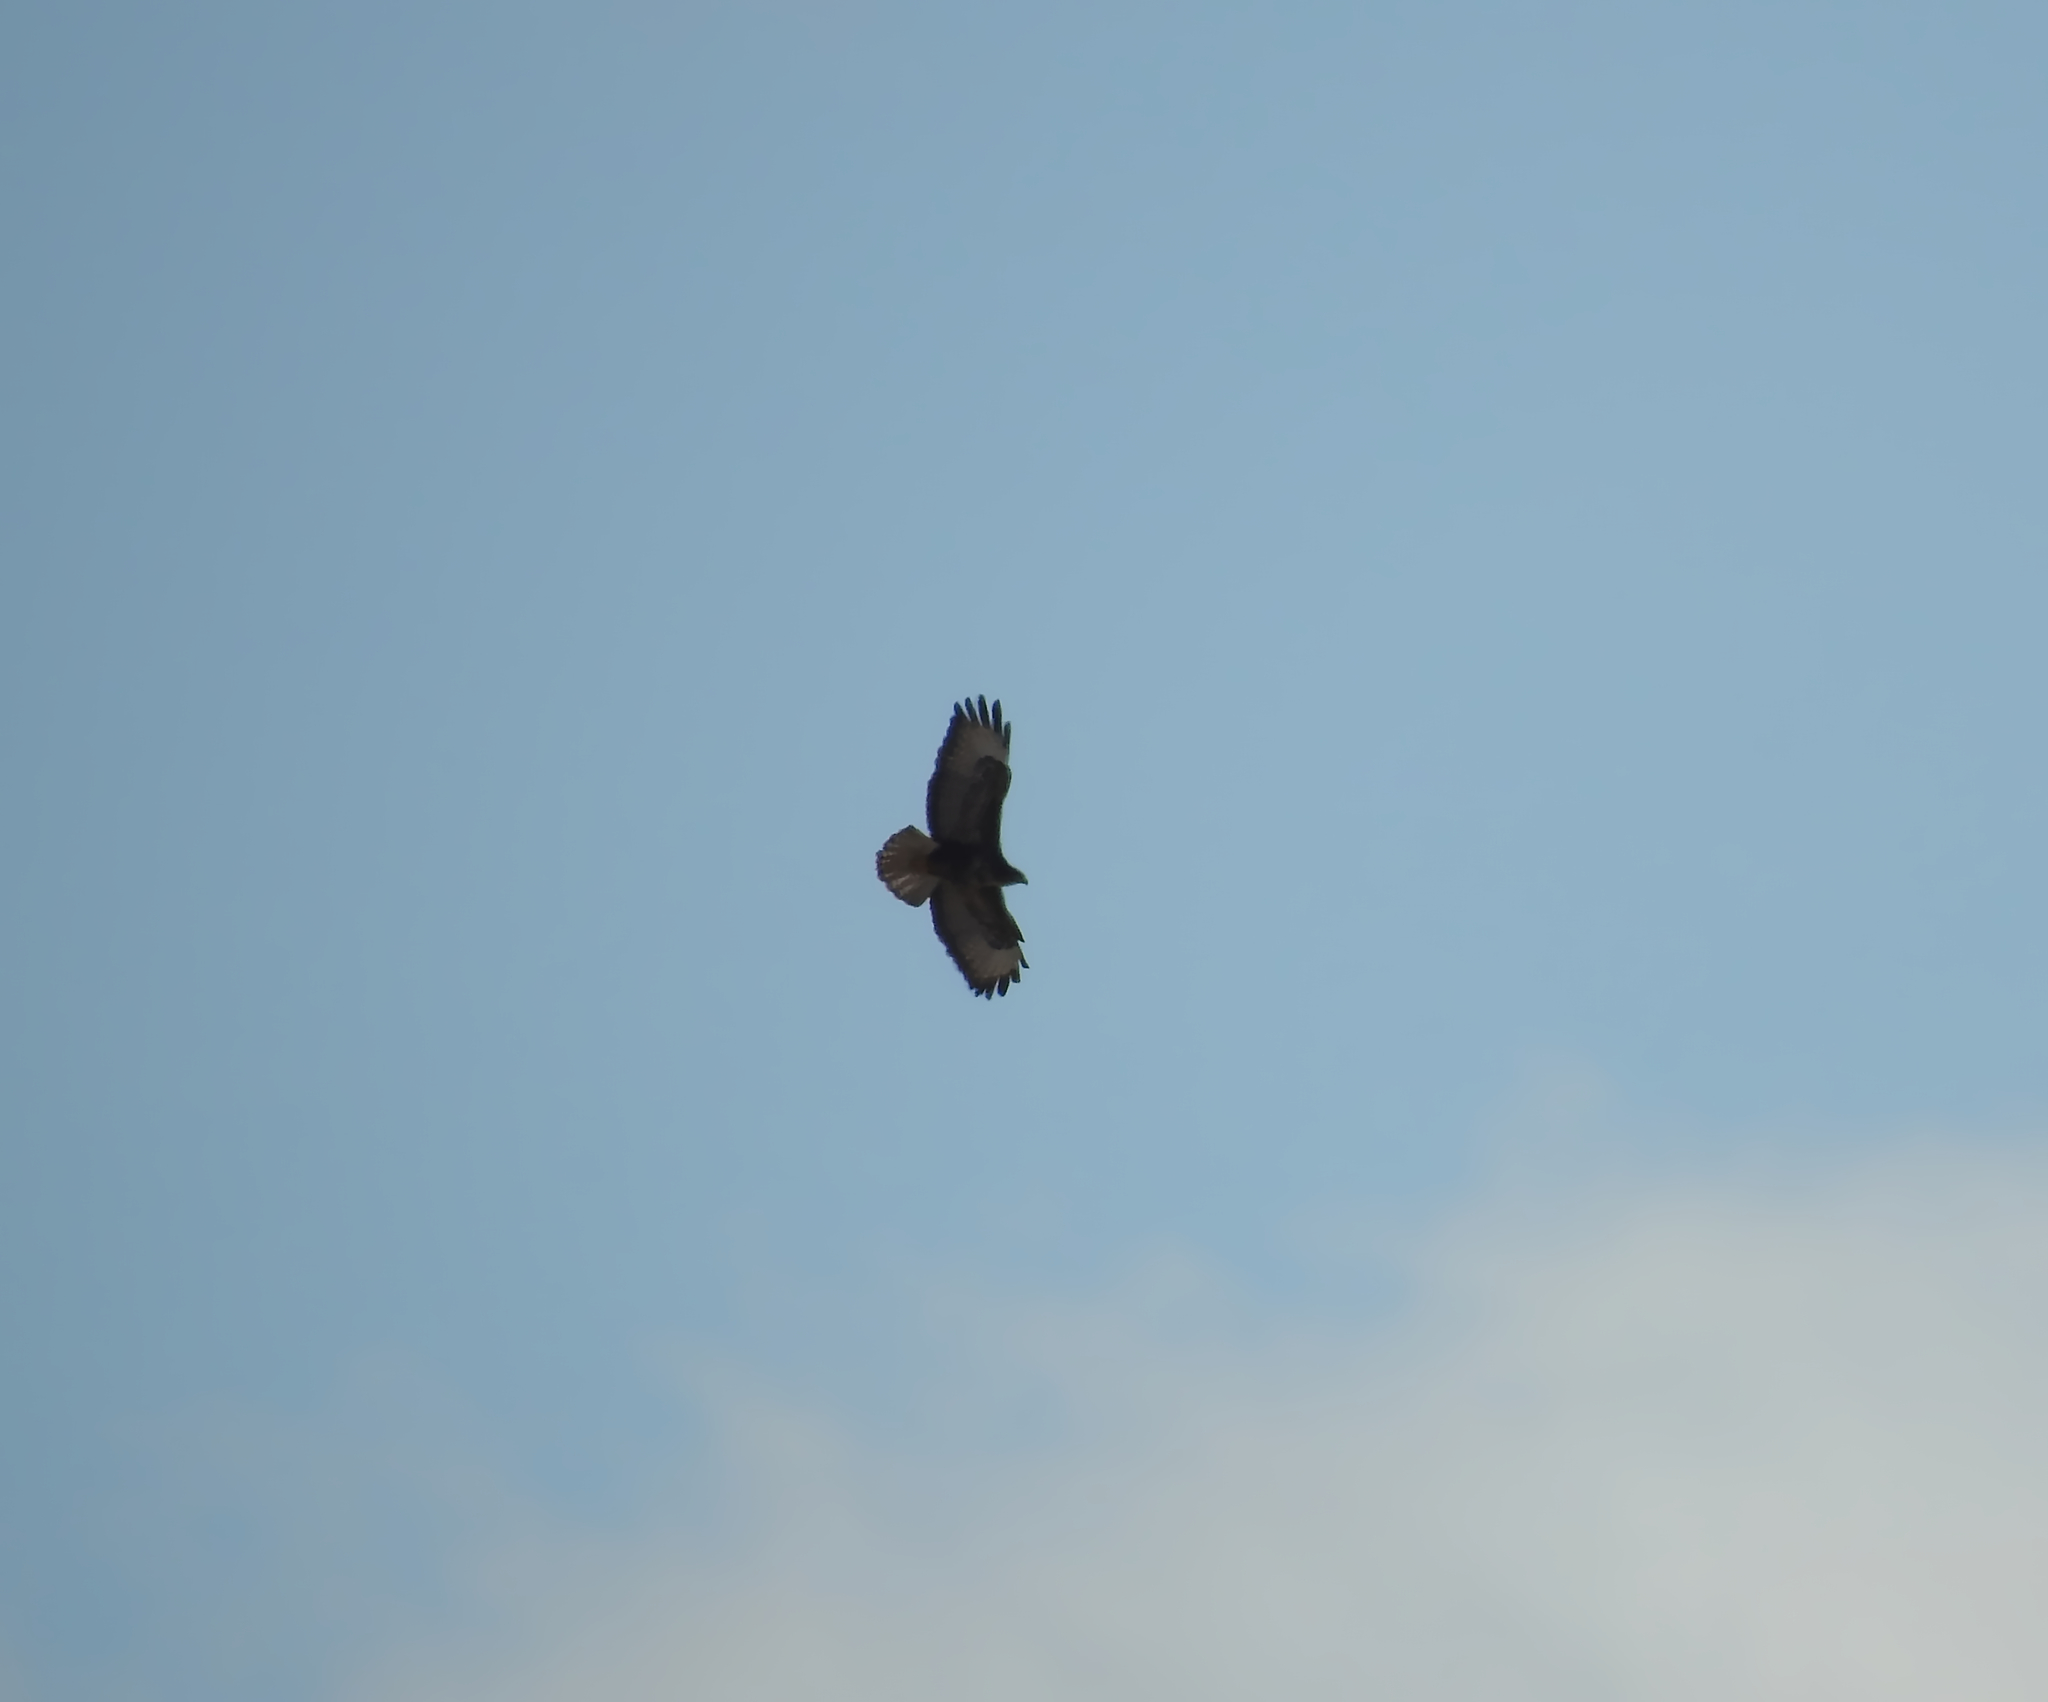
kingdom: Animalia
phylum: Chordata
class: Aves
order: Accipitriformes
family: Accipitridae
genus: Buteo
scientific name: Buteo buteo
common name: Common buzzard
